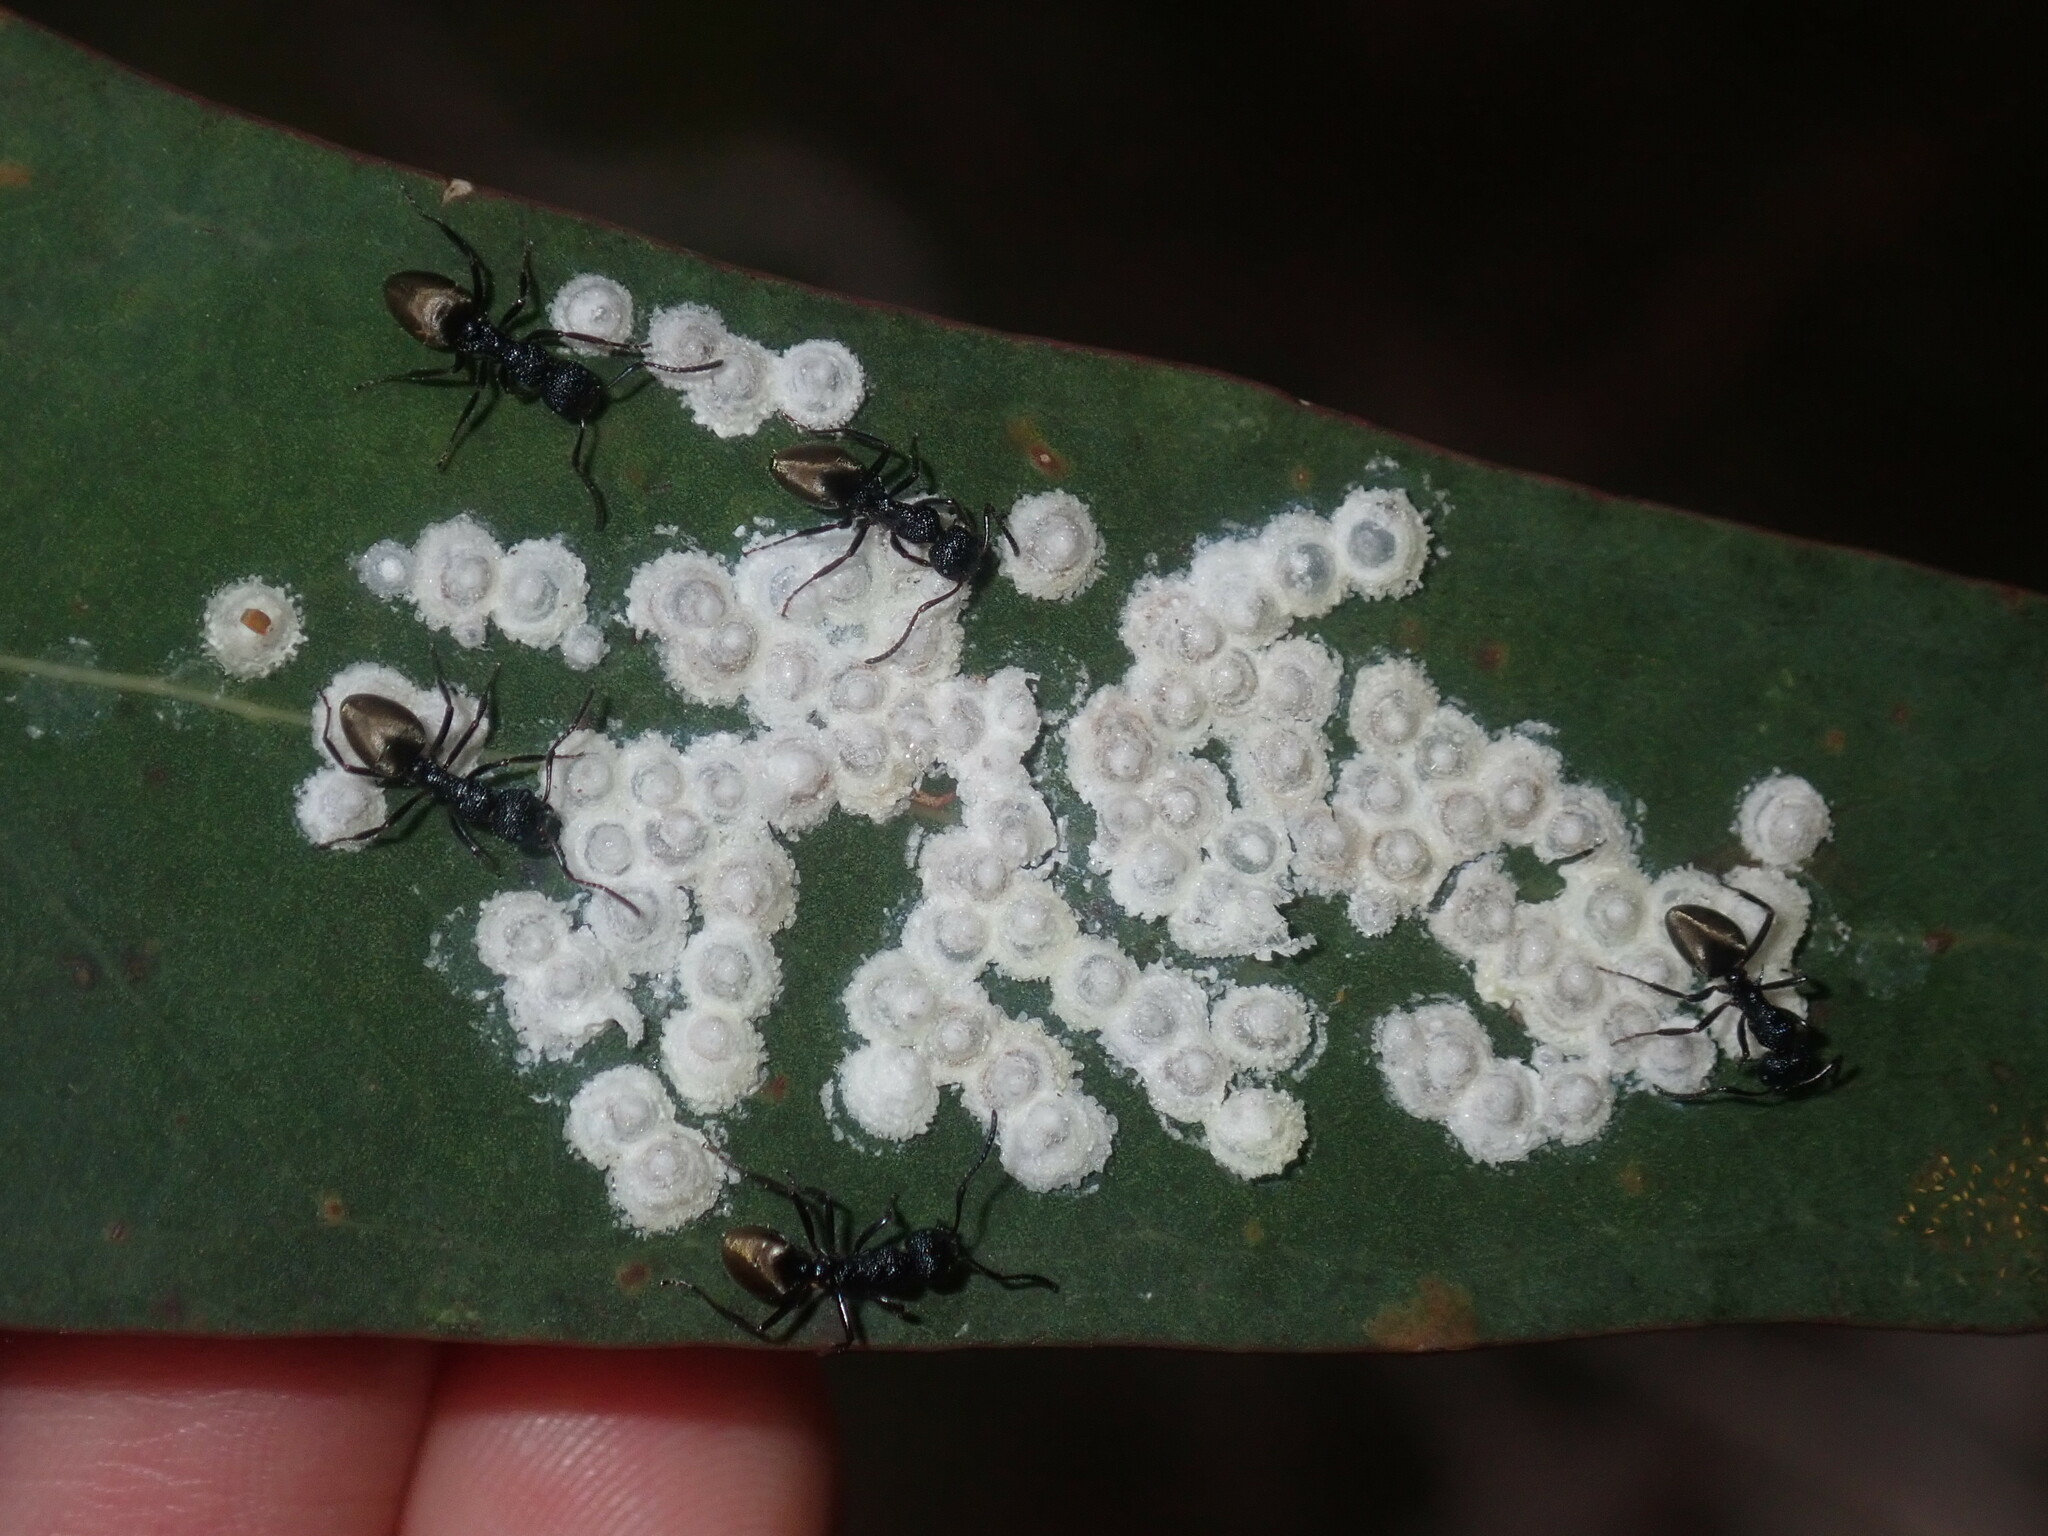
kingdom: Animalia
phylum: Arthropoda
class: Insecta
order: Hymenoptera
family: Formicidae
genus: Dolichoderus
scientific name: Dolichoderus inferus
